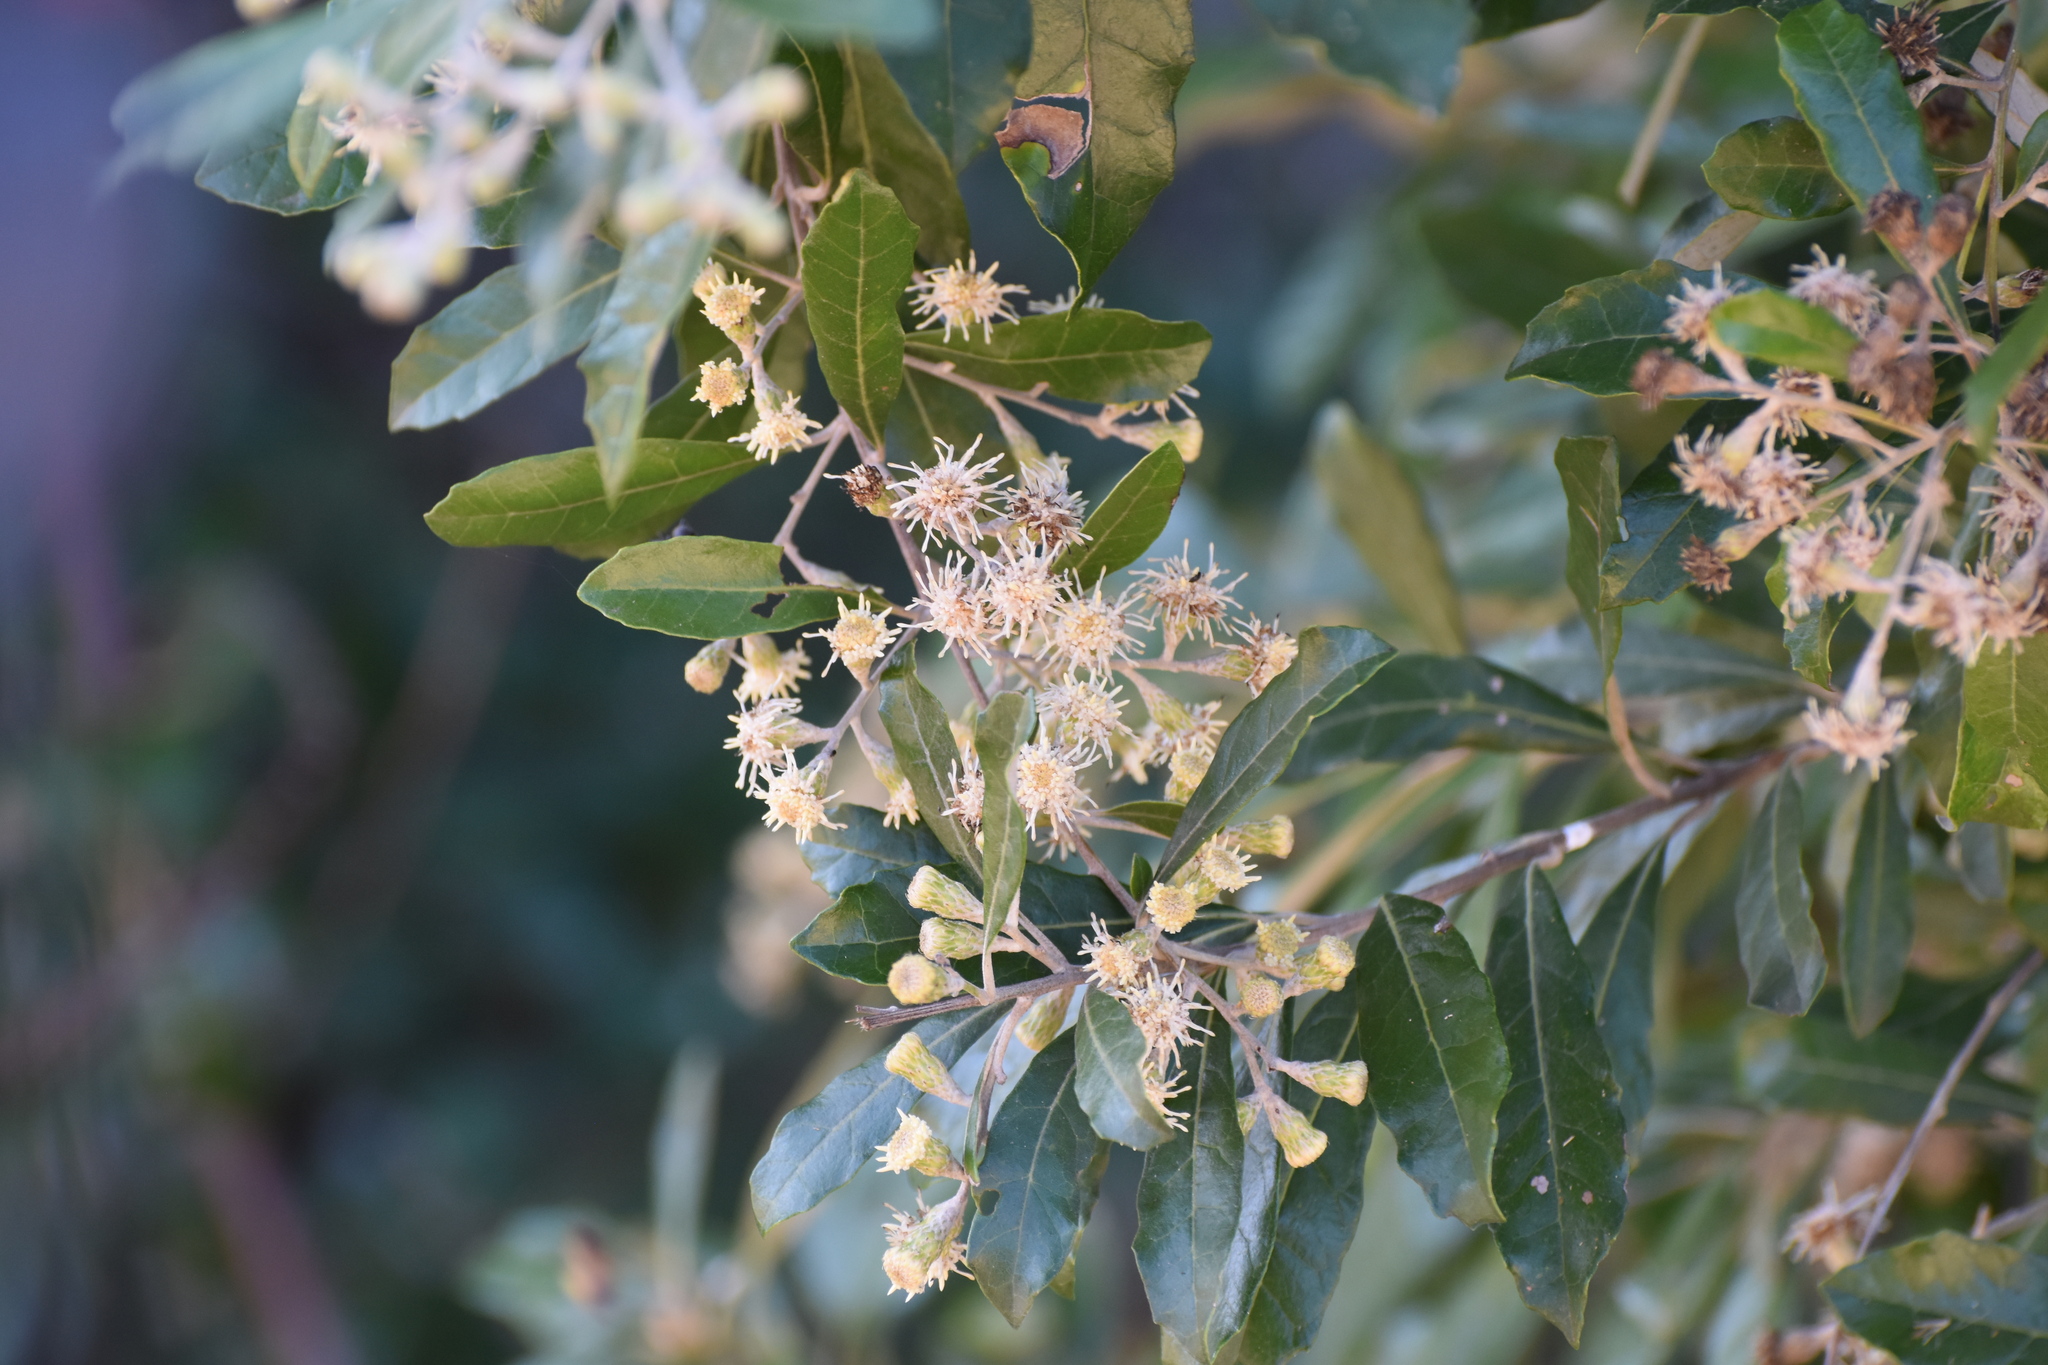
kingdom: Plantae
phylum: Tracheophyta
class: Magnoliopsida
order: Asterales
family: Asteraceae
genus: Brachylaena
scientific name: Brachylaena discolor
